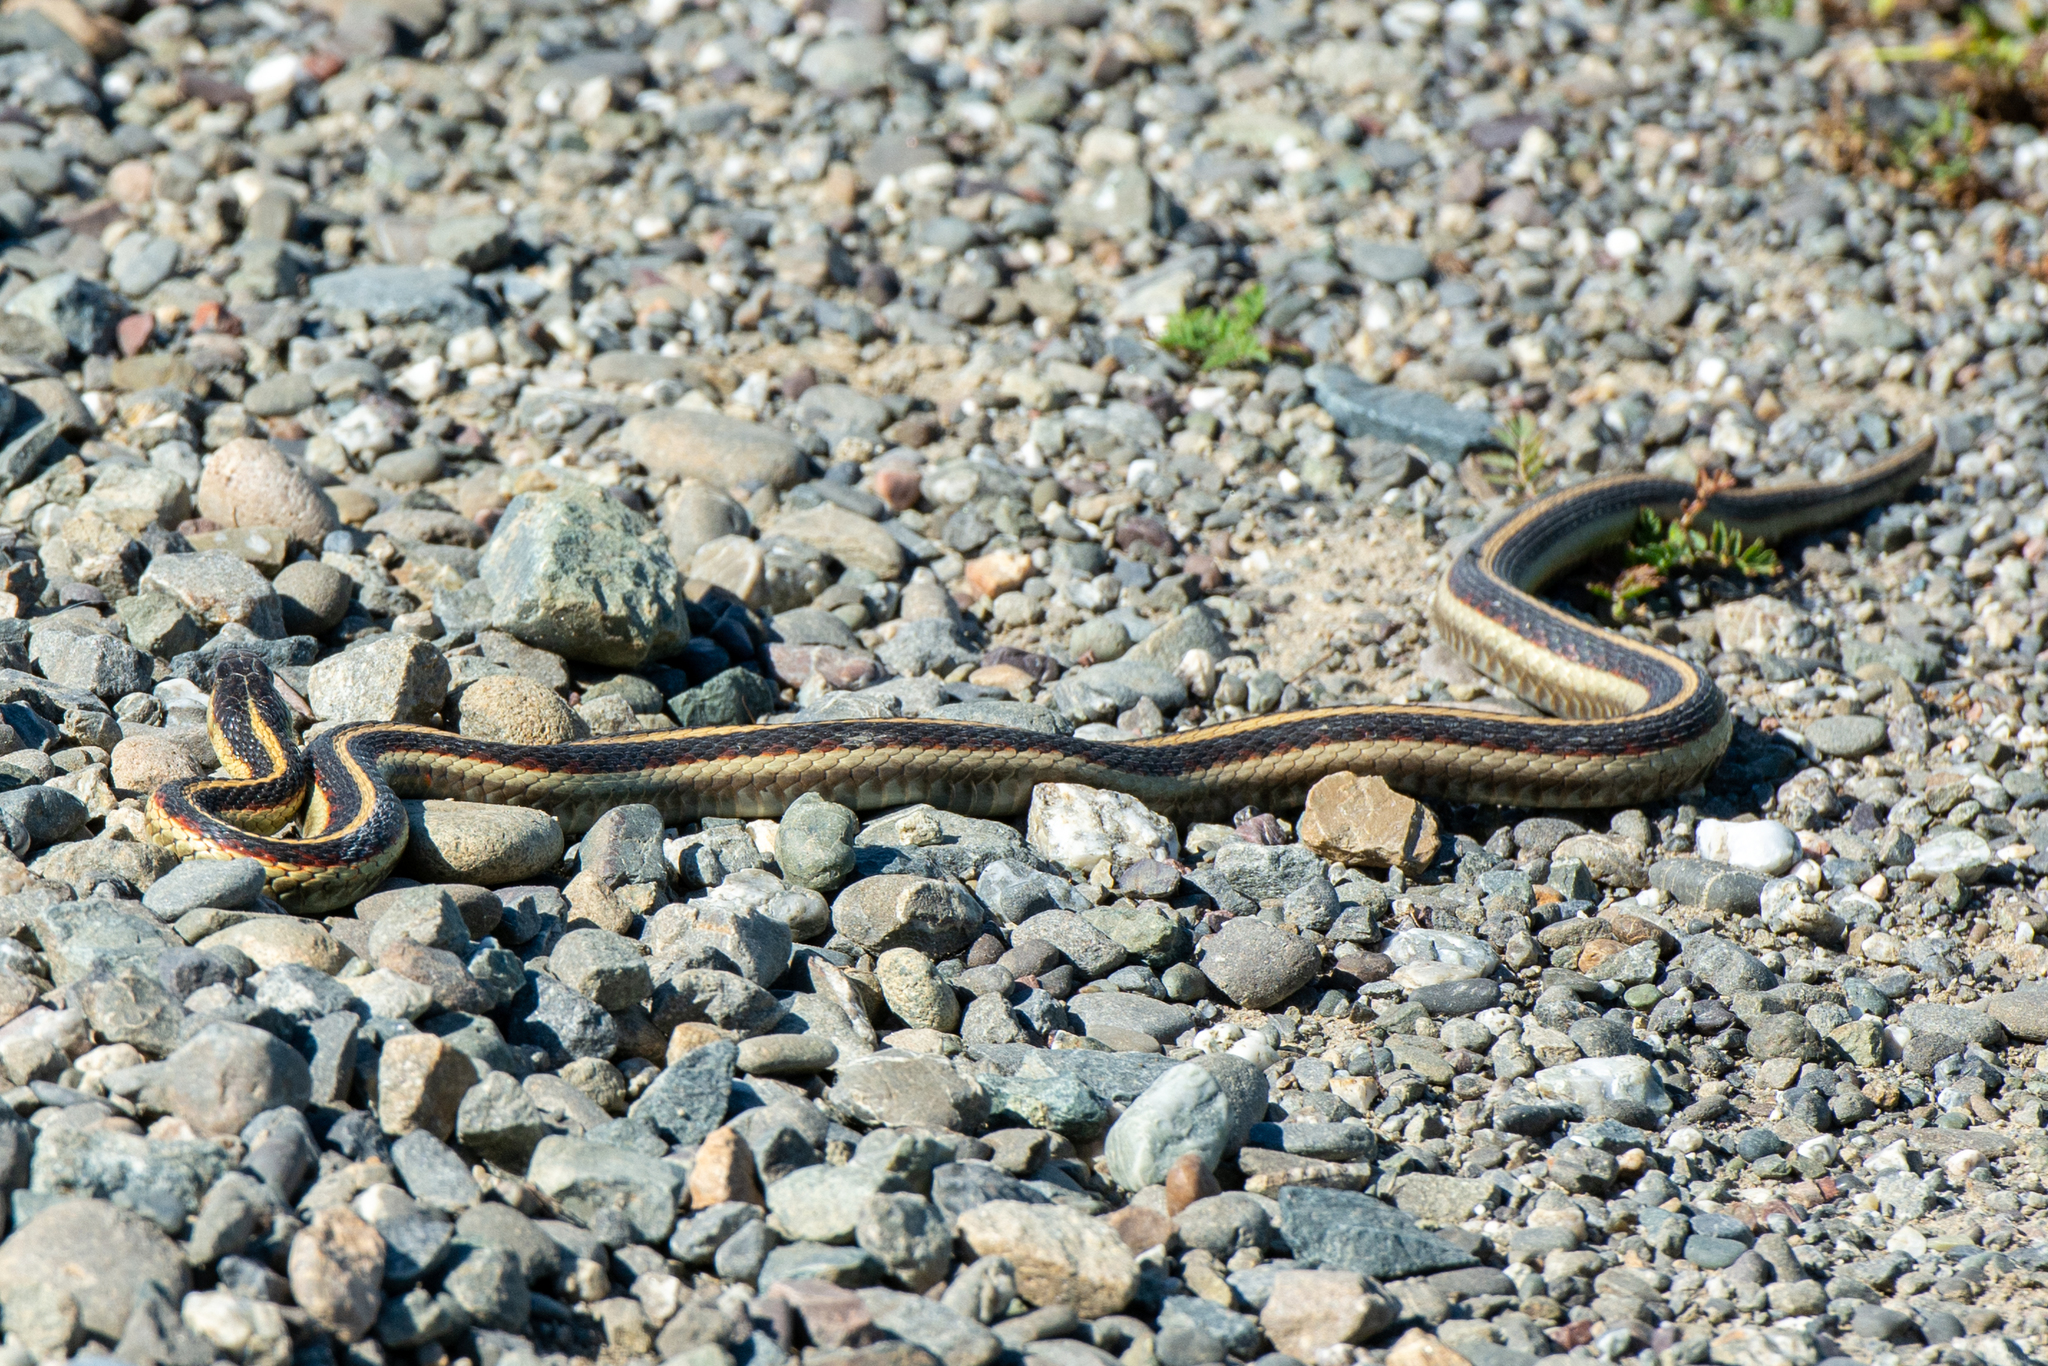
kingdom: Animalia
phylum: Chordata
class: Squamata
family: Colubridae
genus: Thamnophis
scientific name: Thamnophis sirtalis
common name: Common garter snake
